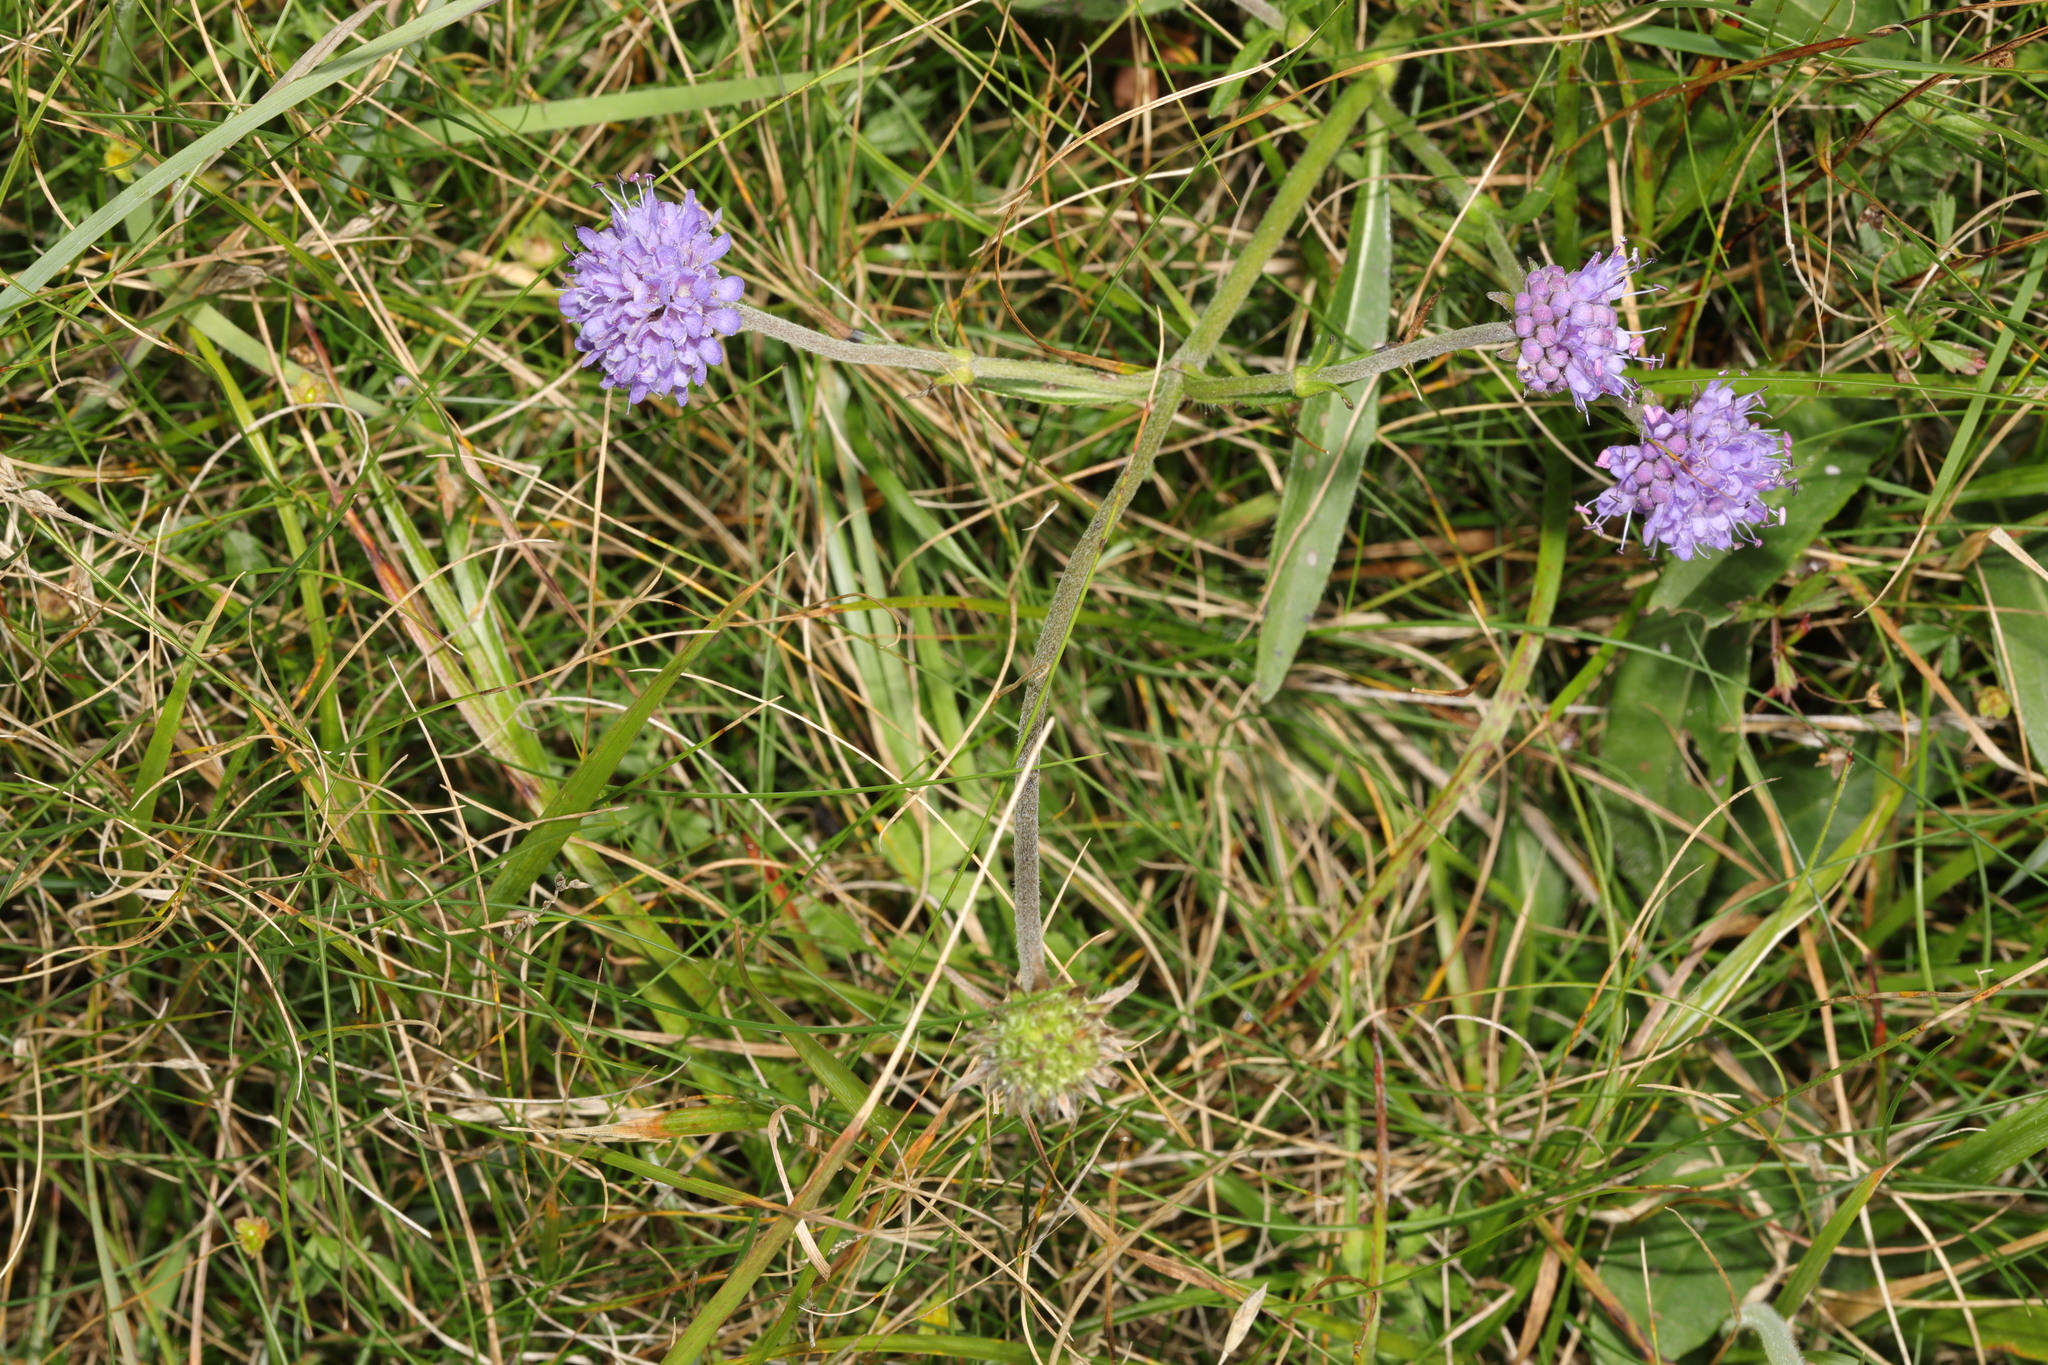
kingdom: Plantae
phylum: Tracheophyta
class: Magnoliopsida
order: Dipsacales
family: Caprifoliaceae
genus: Succisa
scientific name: Succisa pratensis
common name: Devil's-bit
